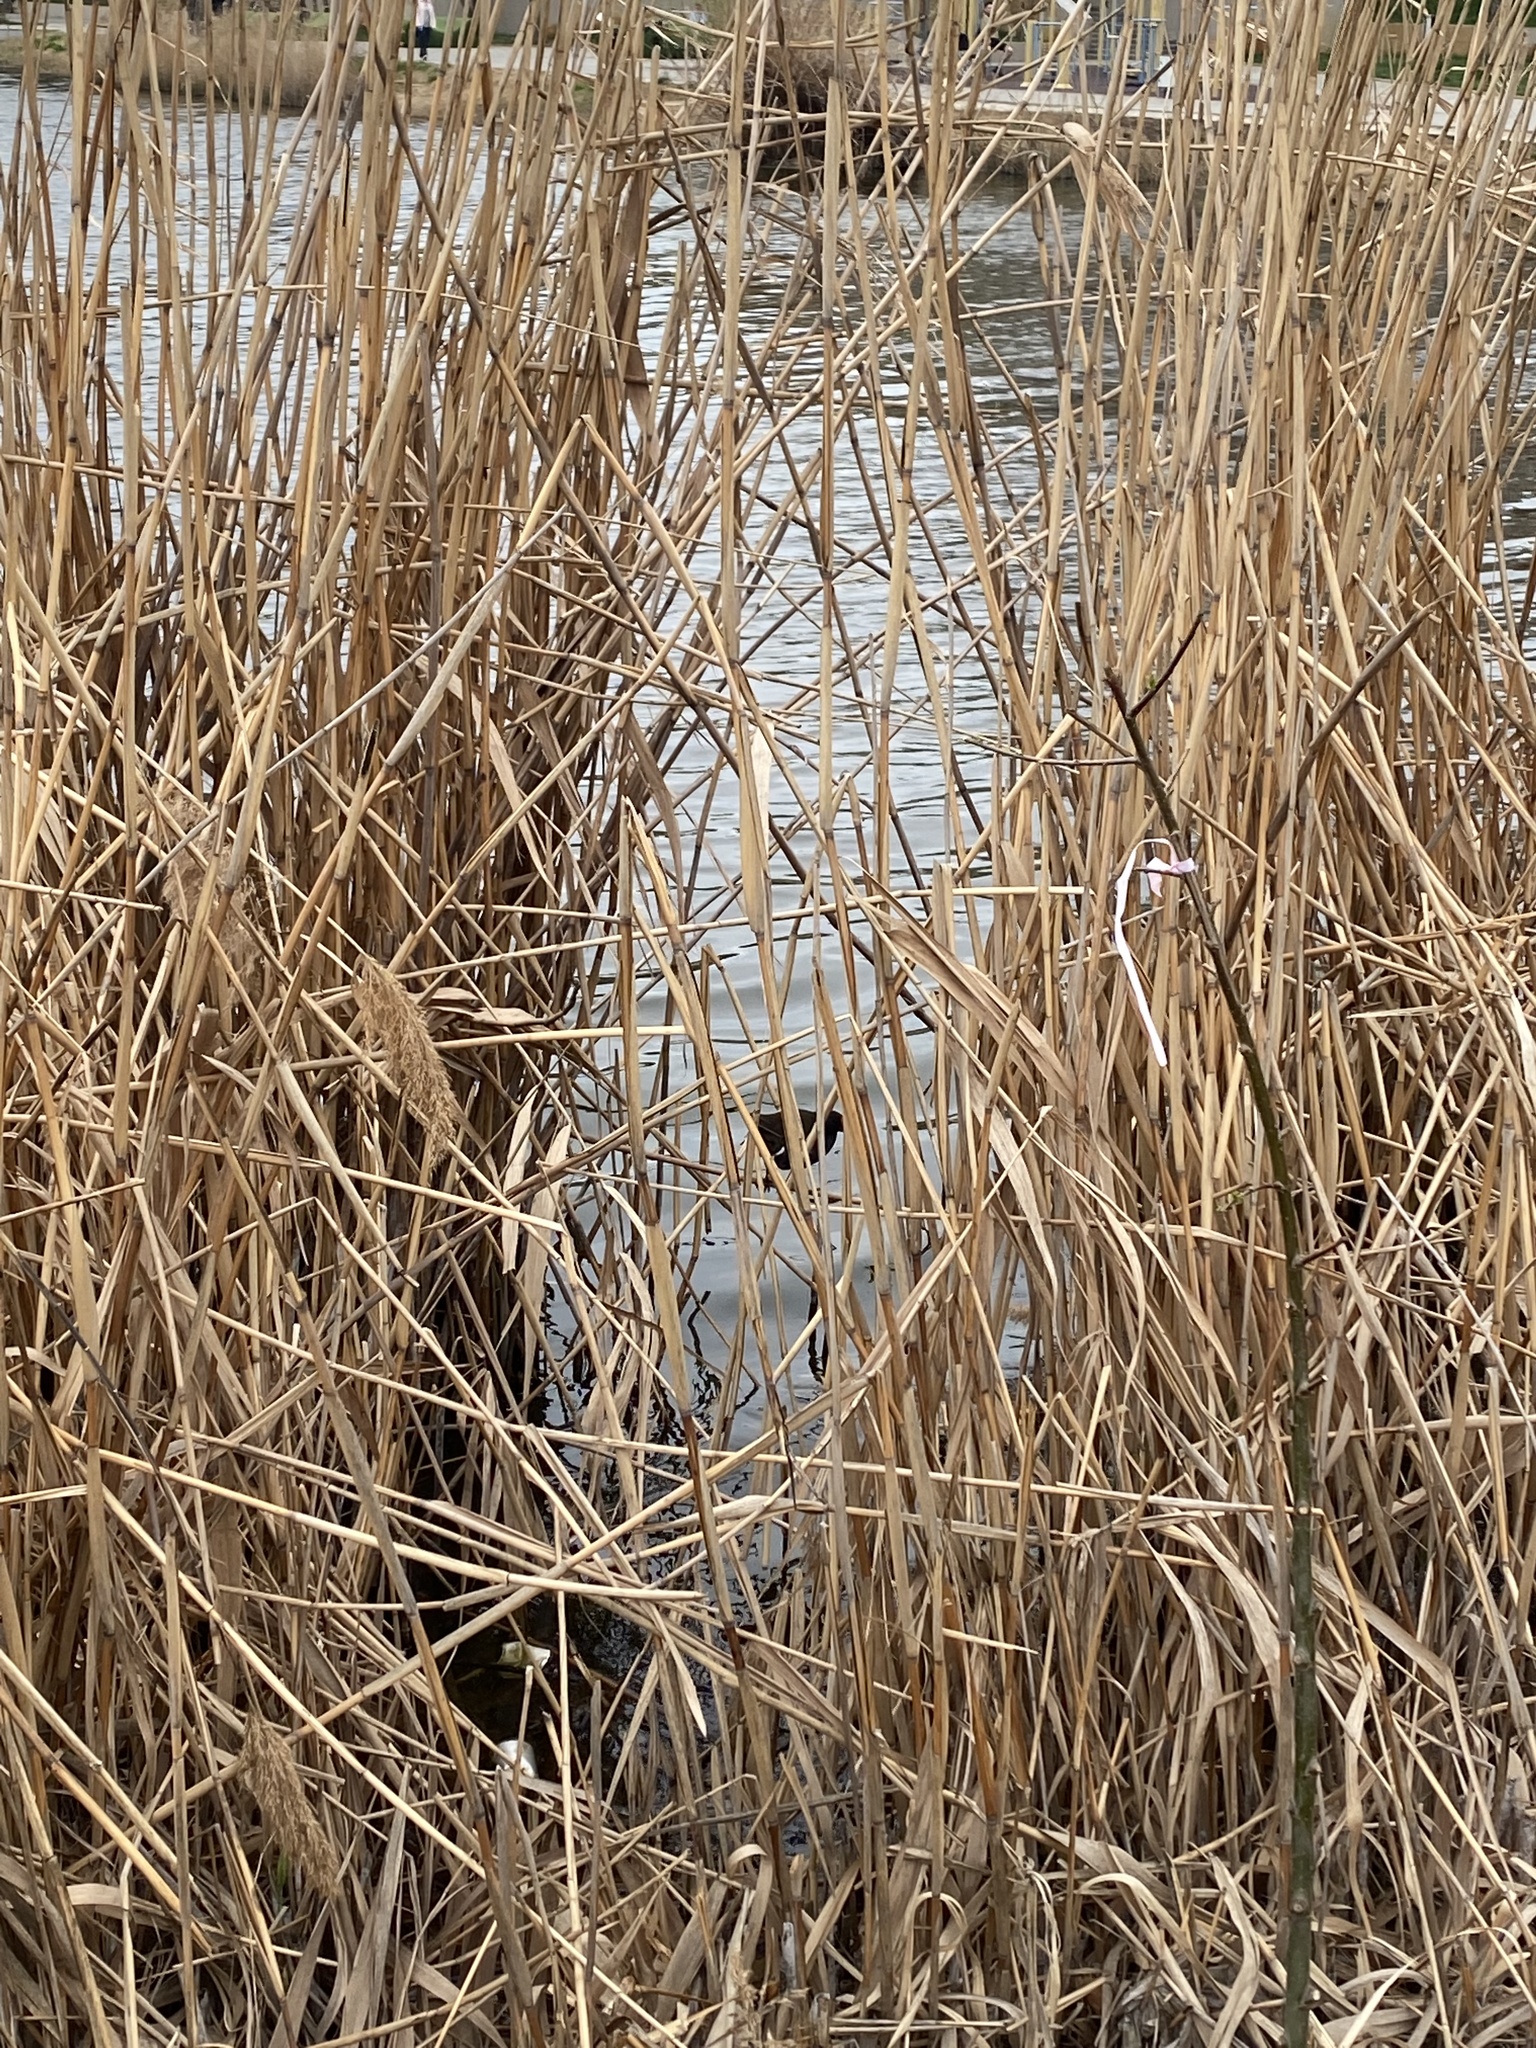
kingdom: Animalia
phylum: Chordata
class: Aves
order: Gruiformes
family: Rallidae
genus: Gallinula
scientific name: Gallinula chloropus
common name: Common moorhen
